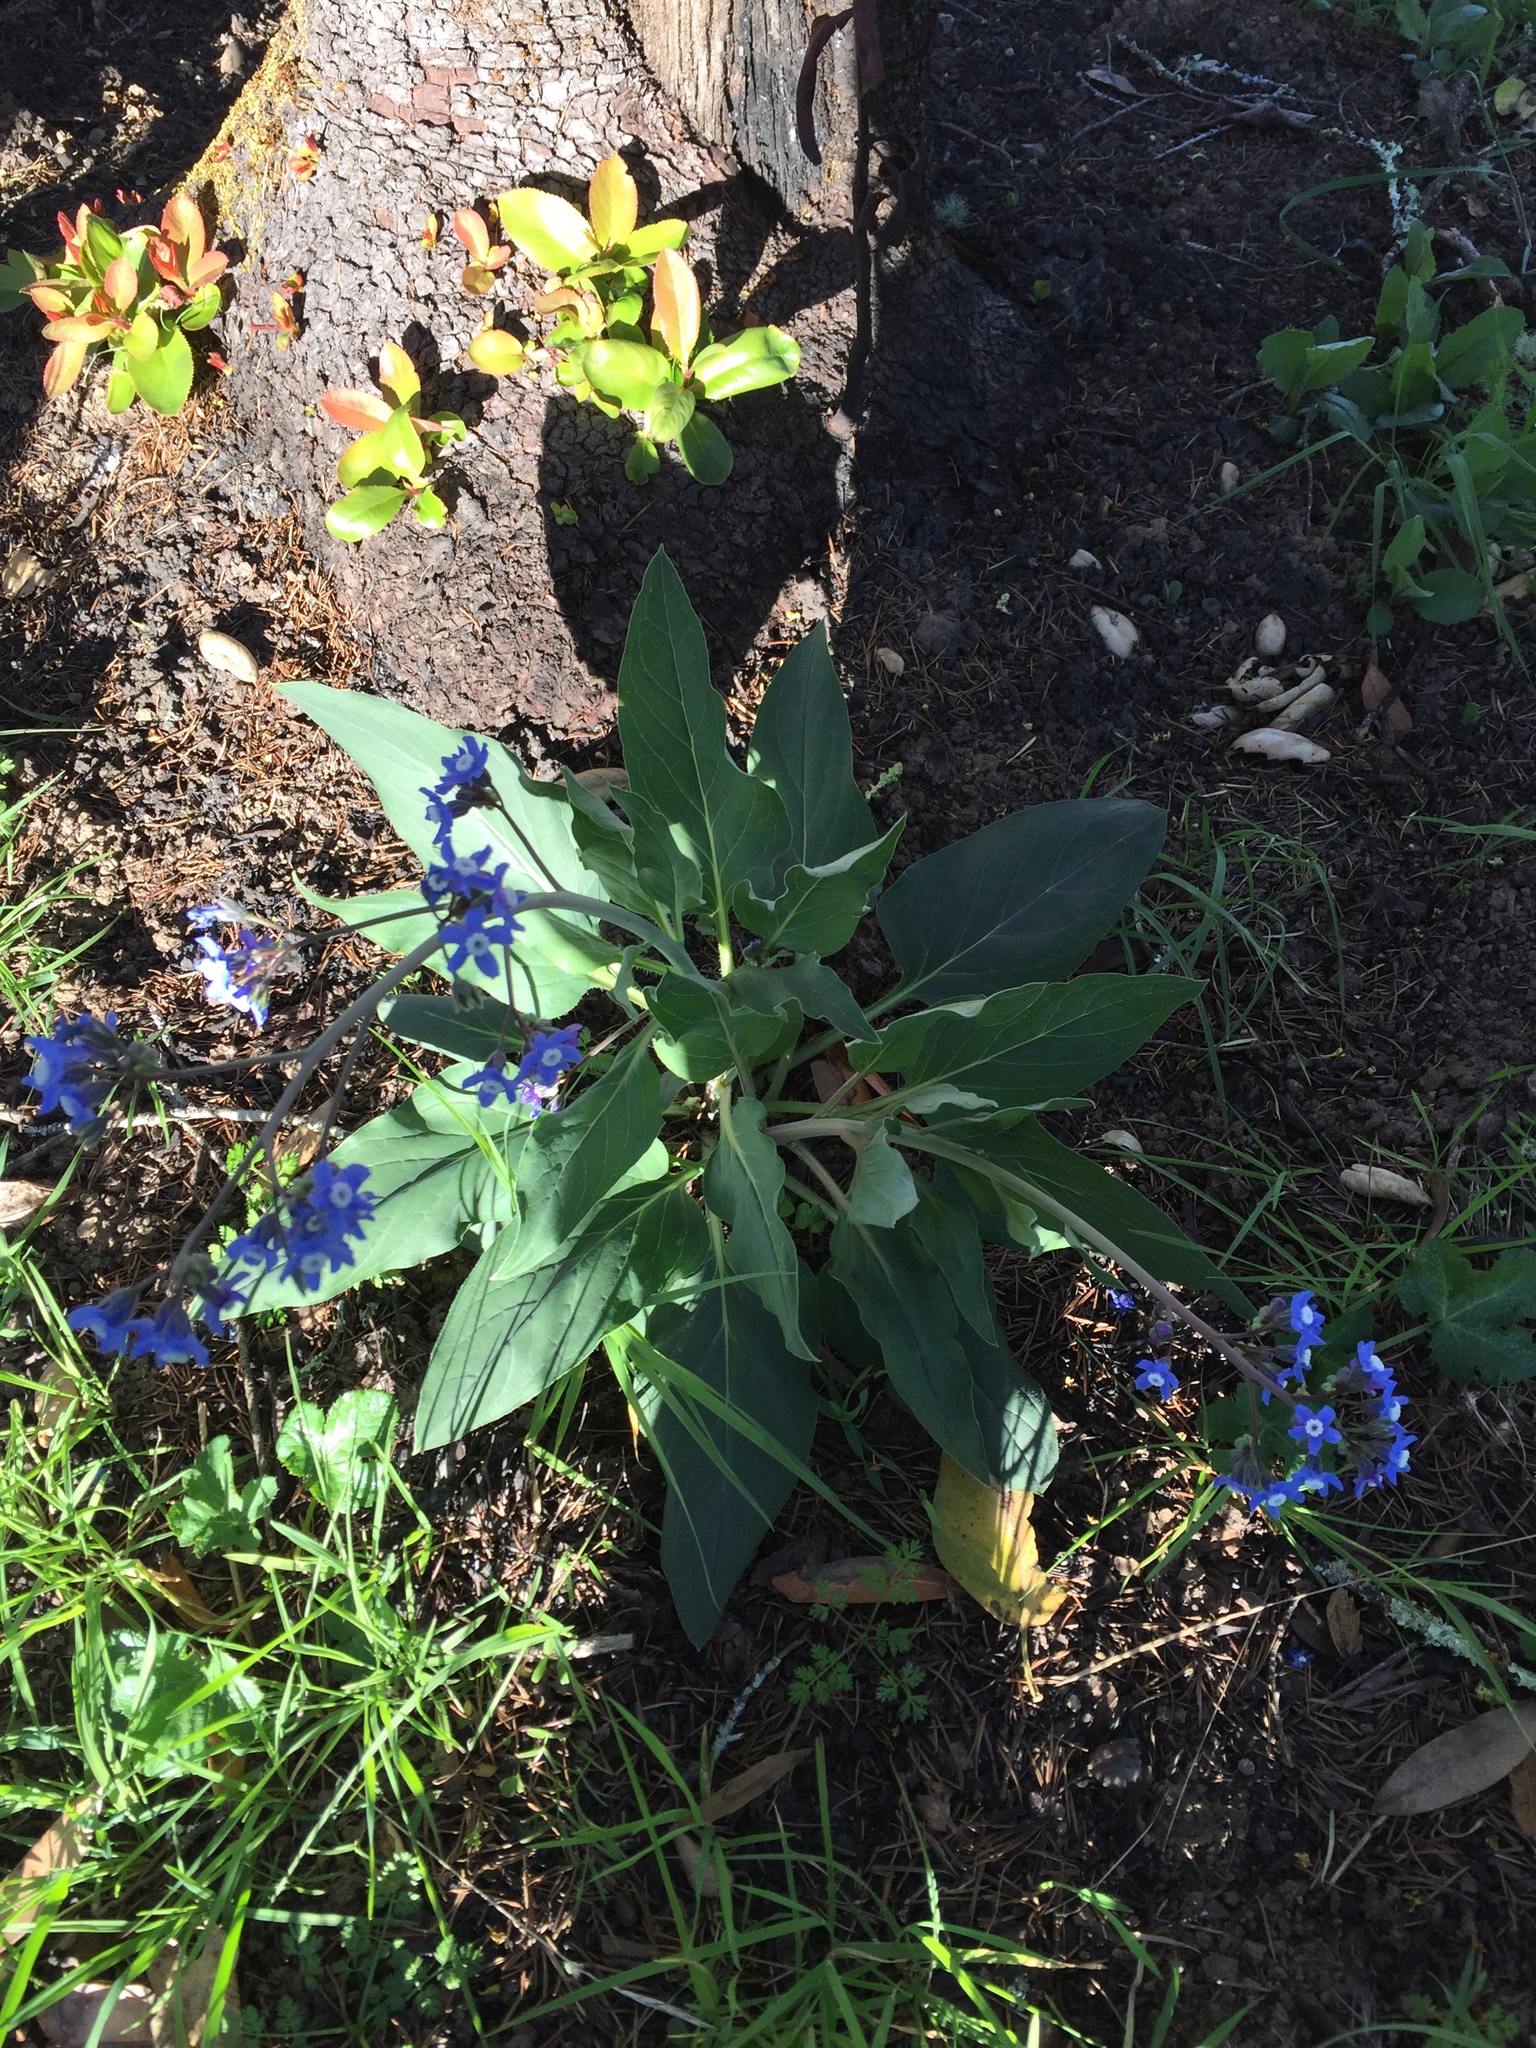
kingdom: Plantae
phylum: Tracheophyta
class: Magnoliopsida
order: Boraginales
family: Boraginaceae
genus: Adelinia
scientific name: Adelinia grande
